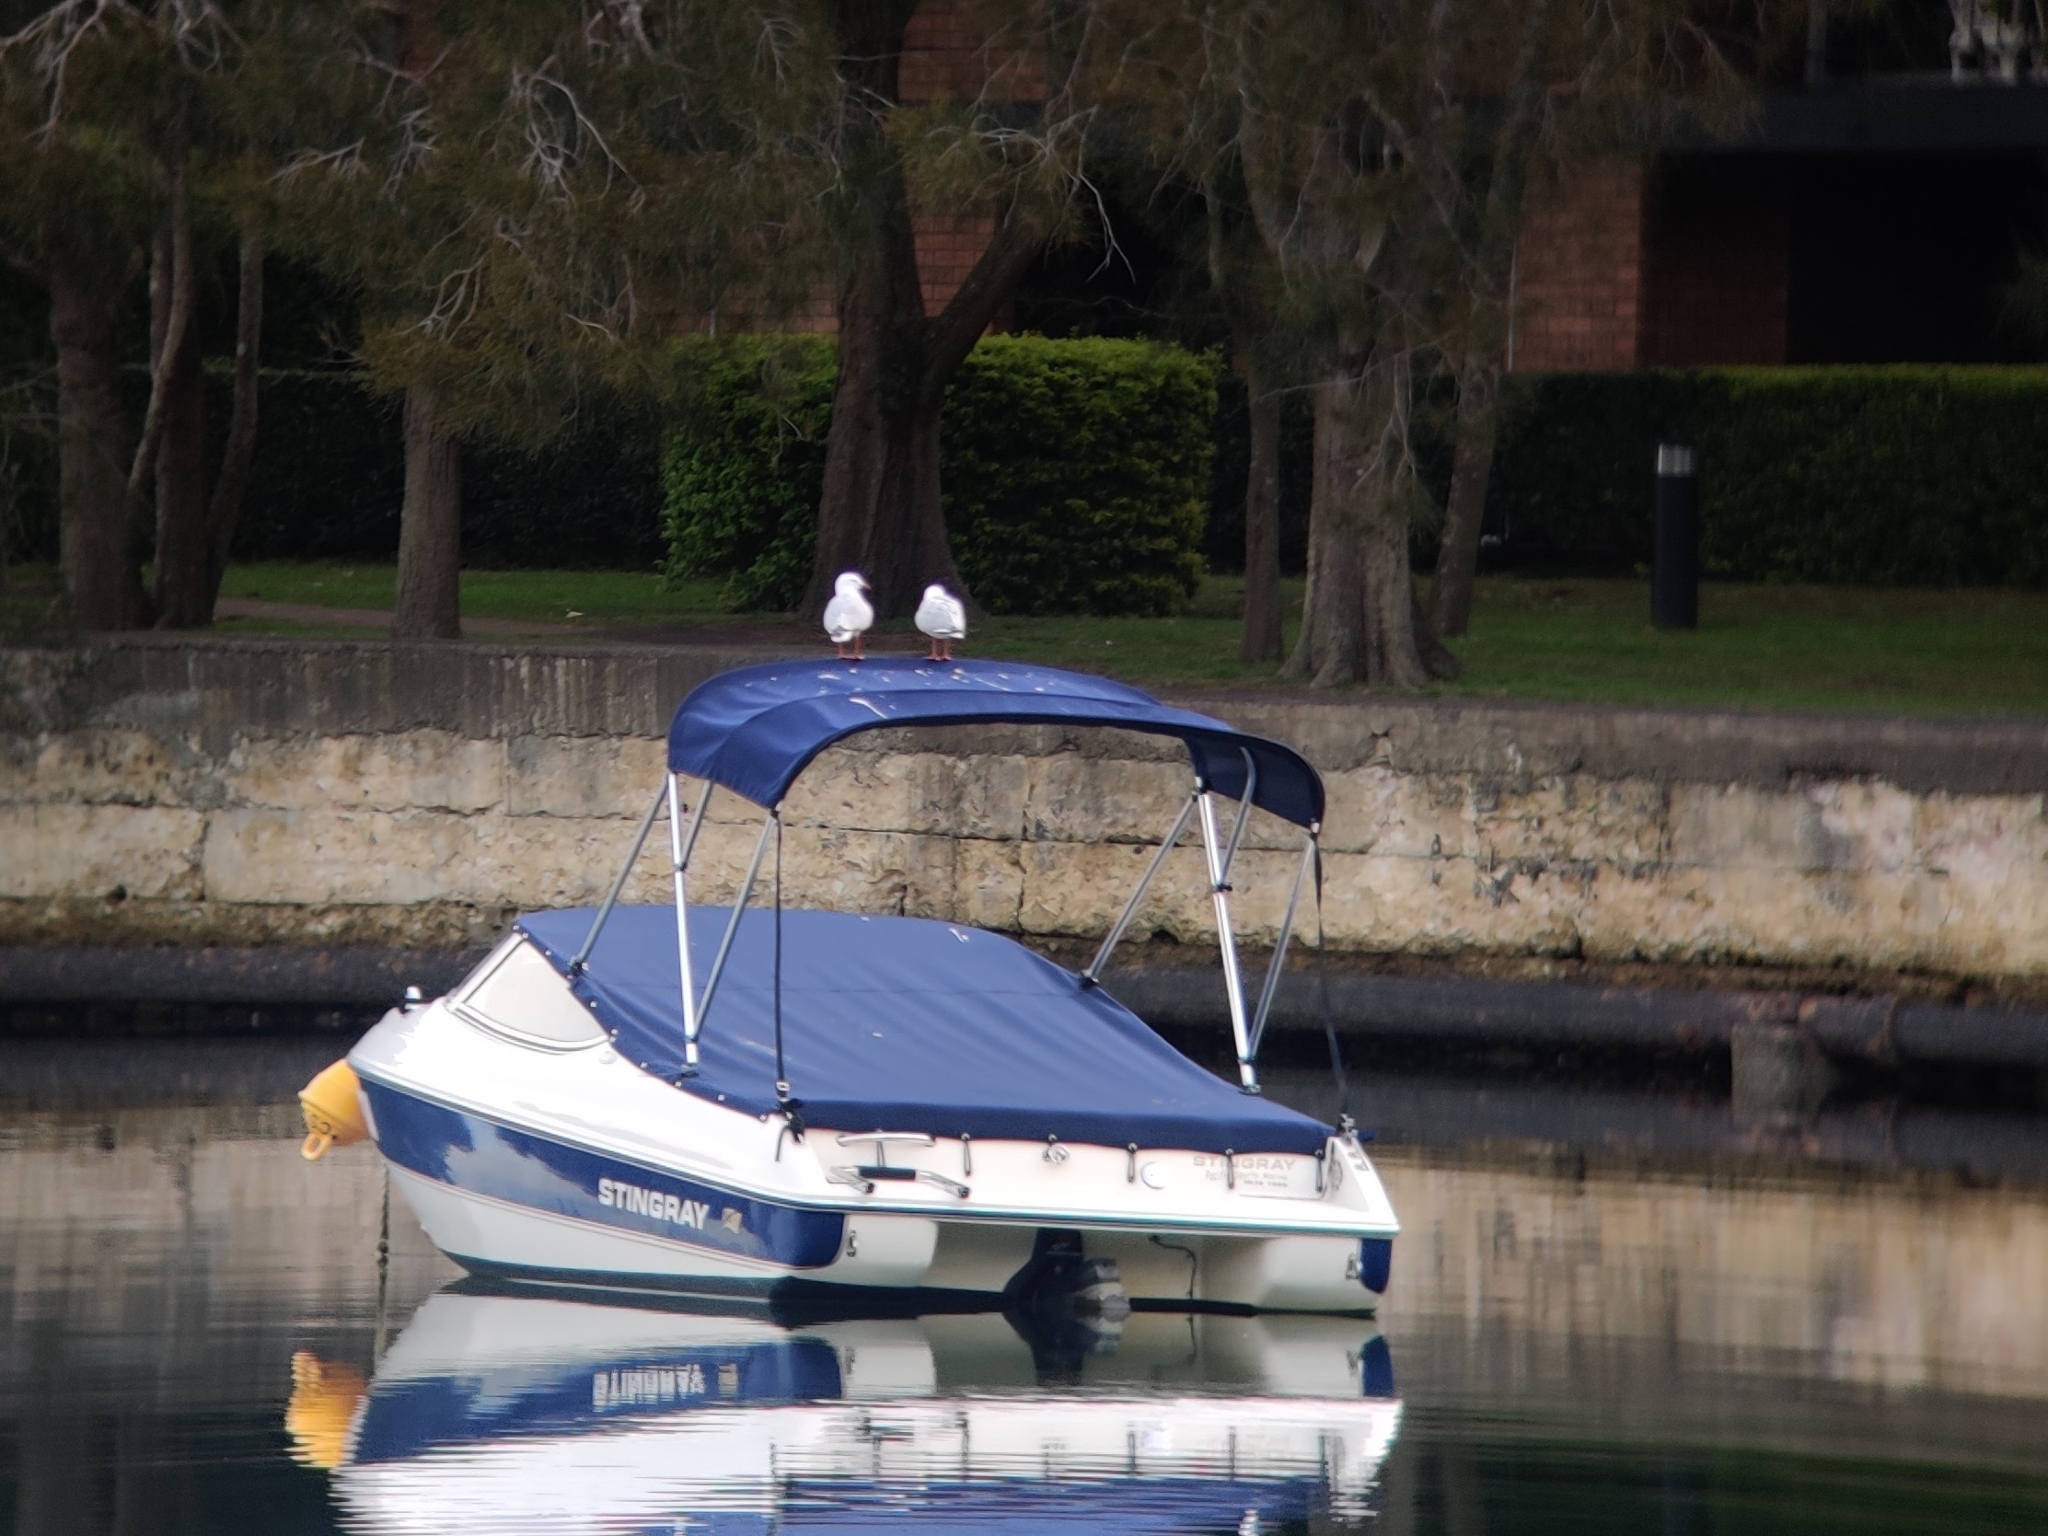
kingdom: Animalia
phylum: Chordata
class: Aves
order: Charadriiformes
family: Laridae
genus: Chroicocephalus
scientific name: Chroicocephalus novaehollandiae
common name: Silver gull
